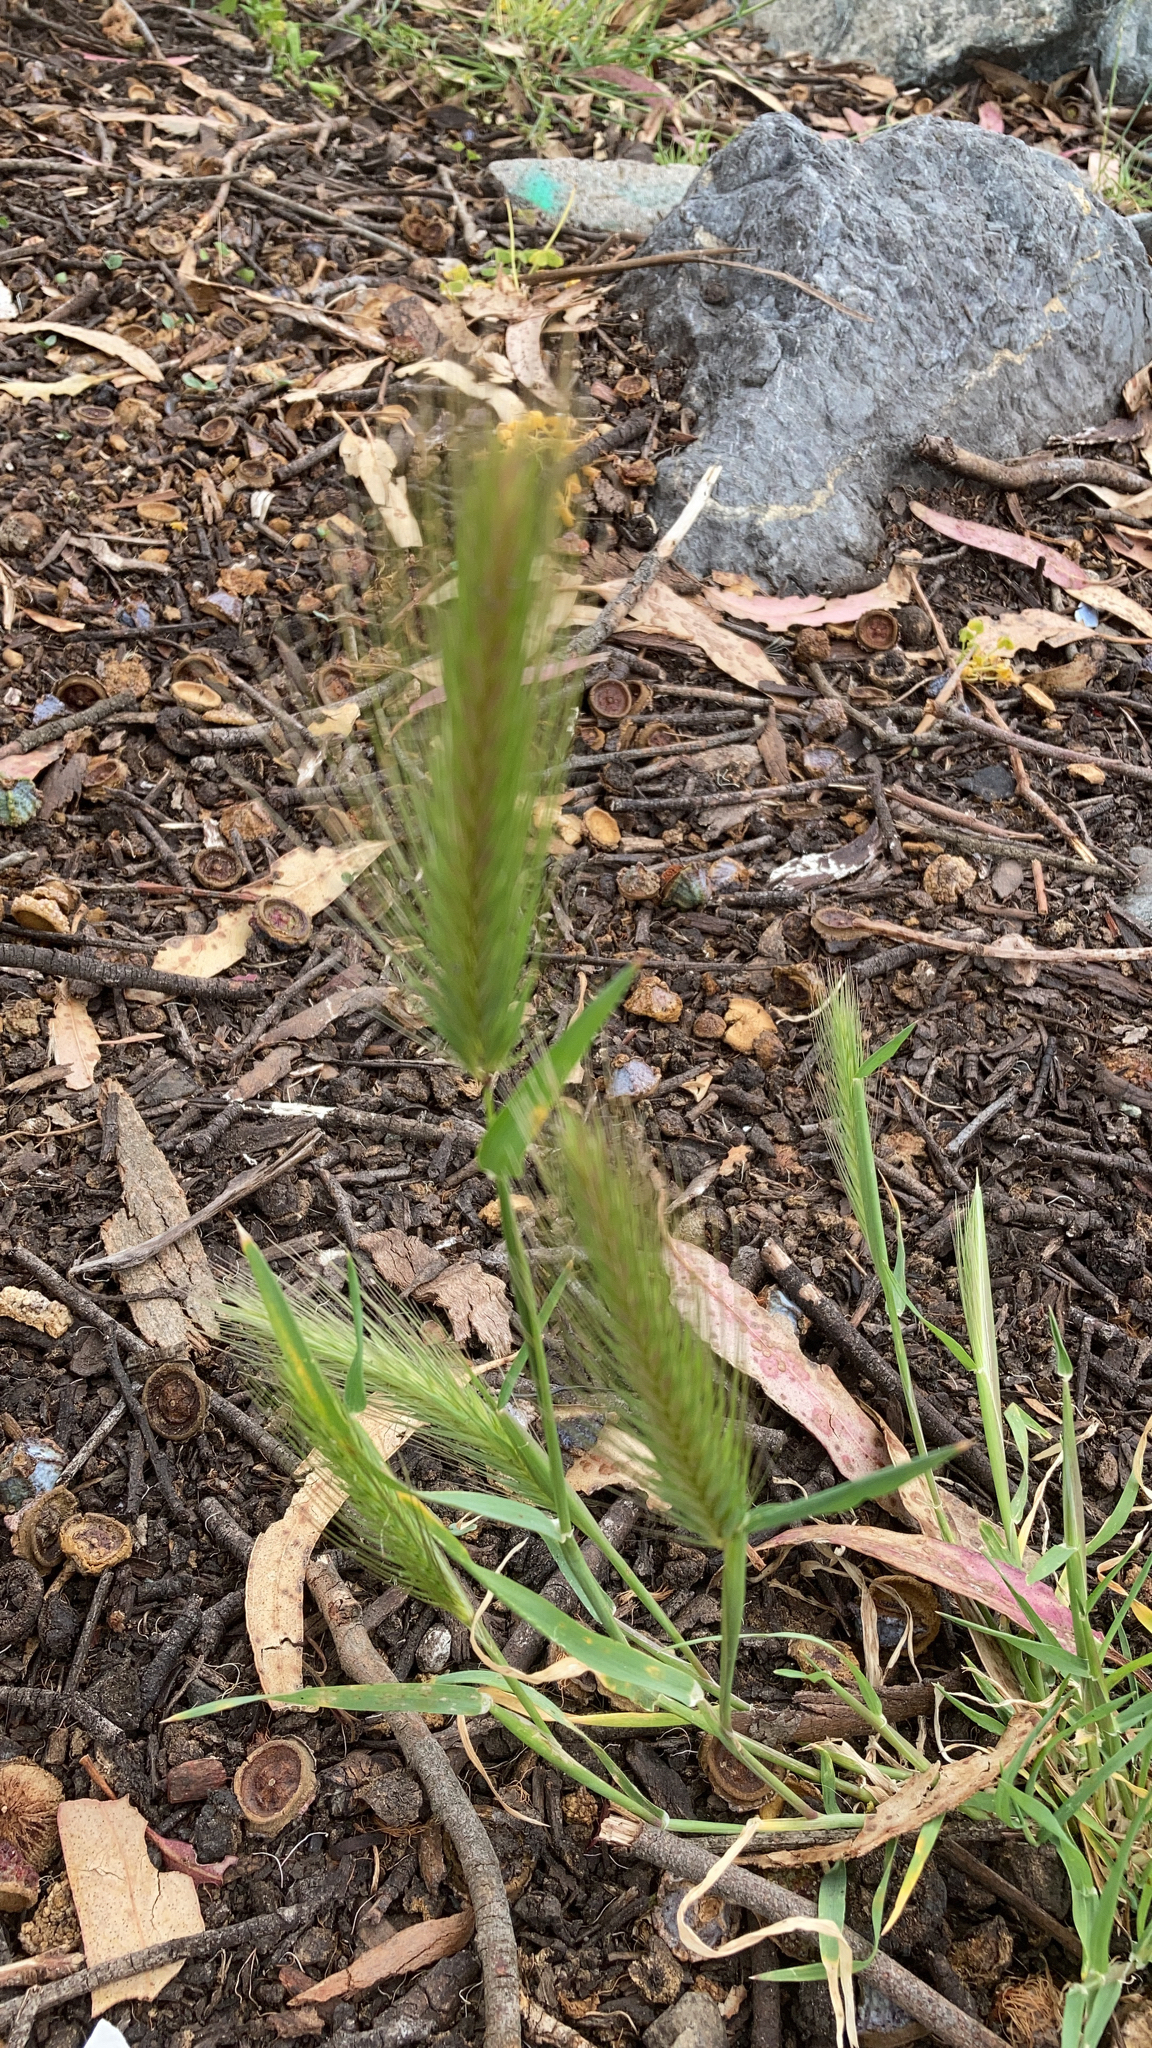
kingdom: Plantae
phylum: Tracheophyta
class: Liliopsida
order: Poales
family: Poaceae
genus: Hordeum
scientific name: Hordeum murinum
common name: Wall barley
